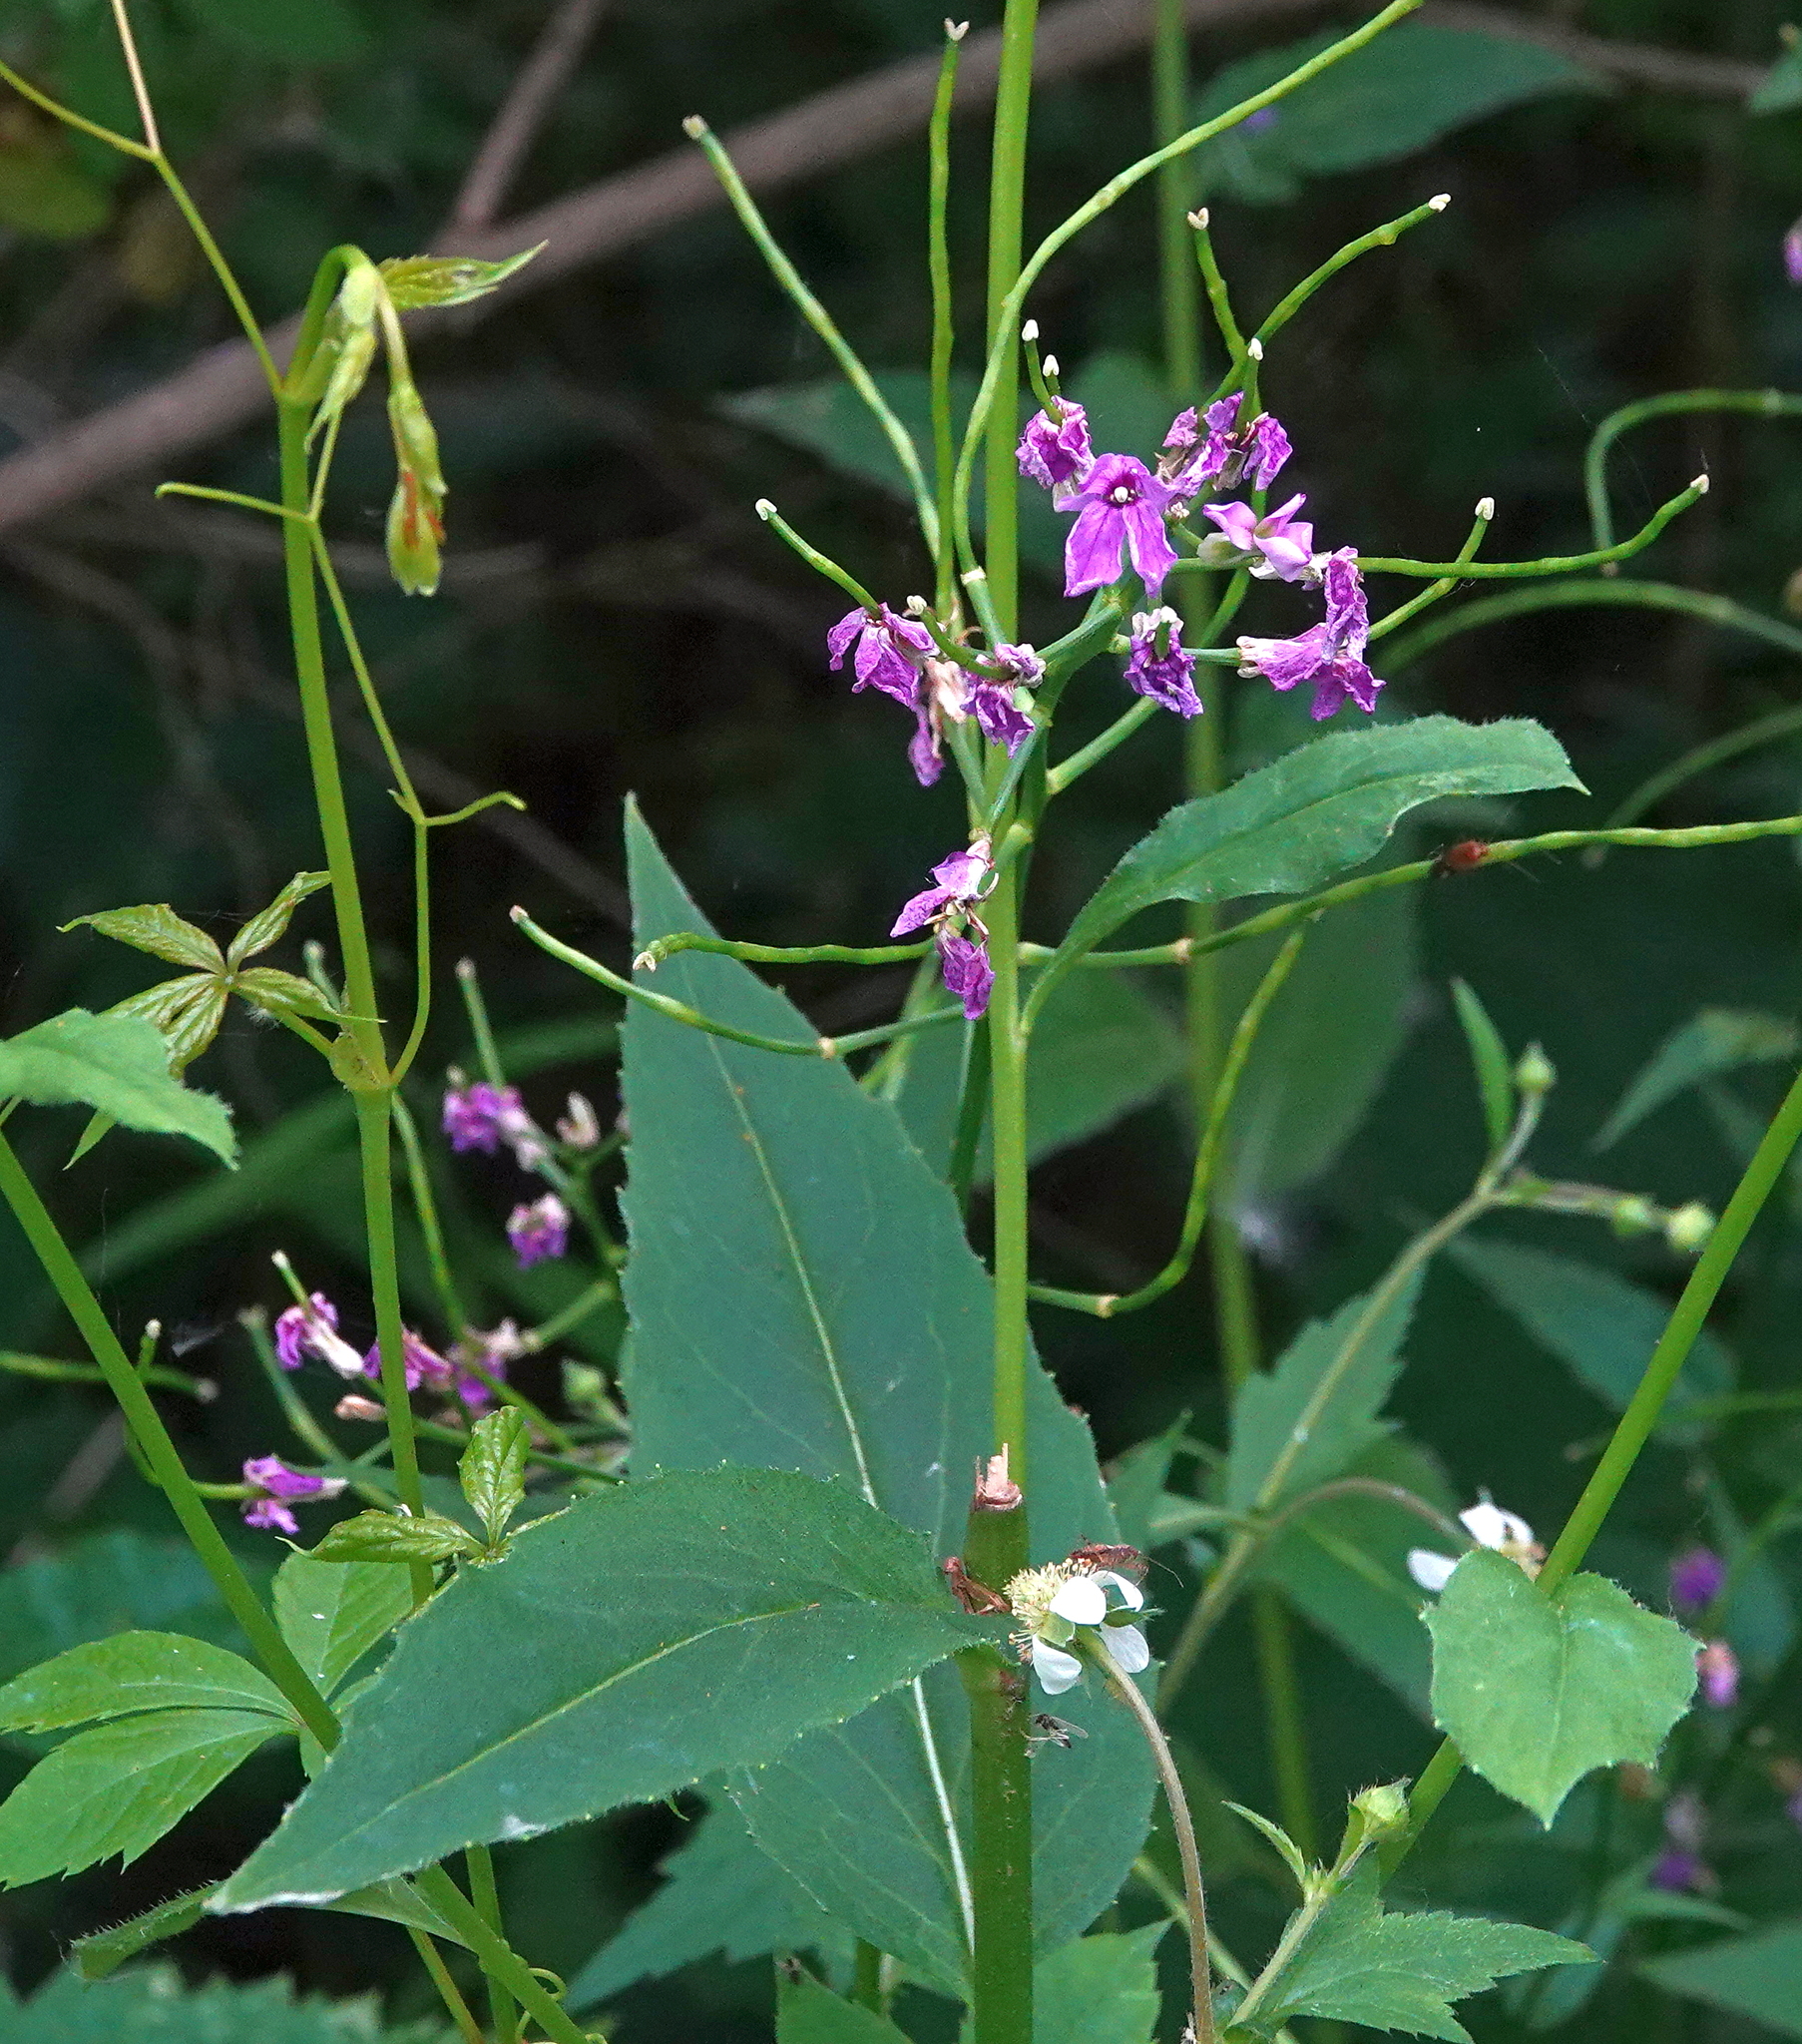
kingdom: Plantae
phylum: Tracheophyta
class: Magnoliopsida
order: Brassicales
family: Brassicaceae
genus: Hesperis
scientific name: Hesperis matronalis
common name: Dame's-violet
